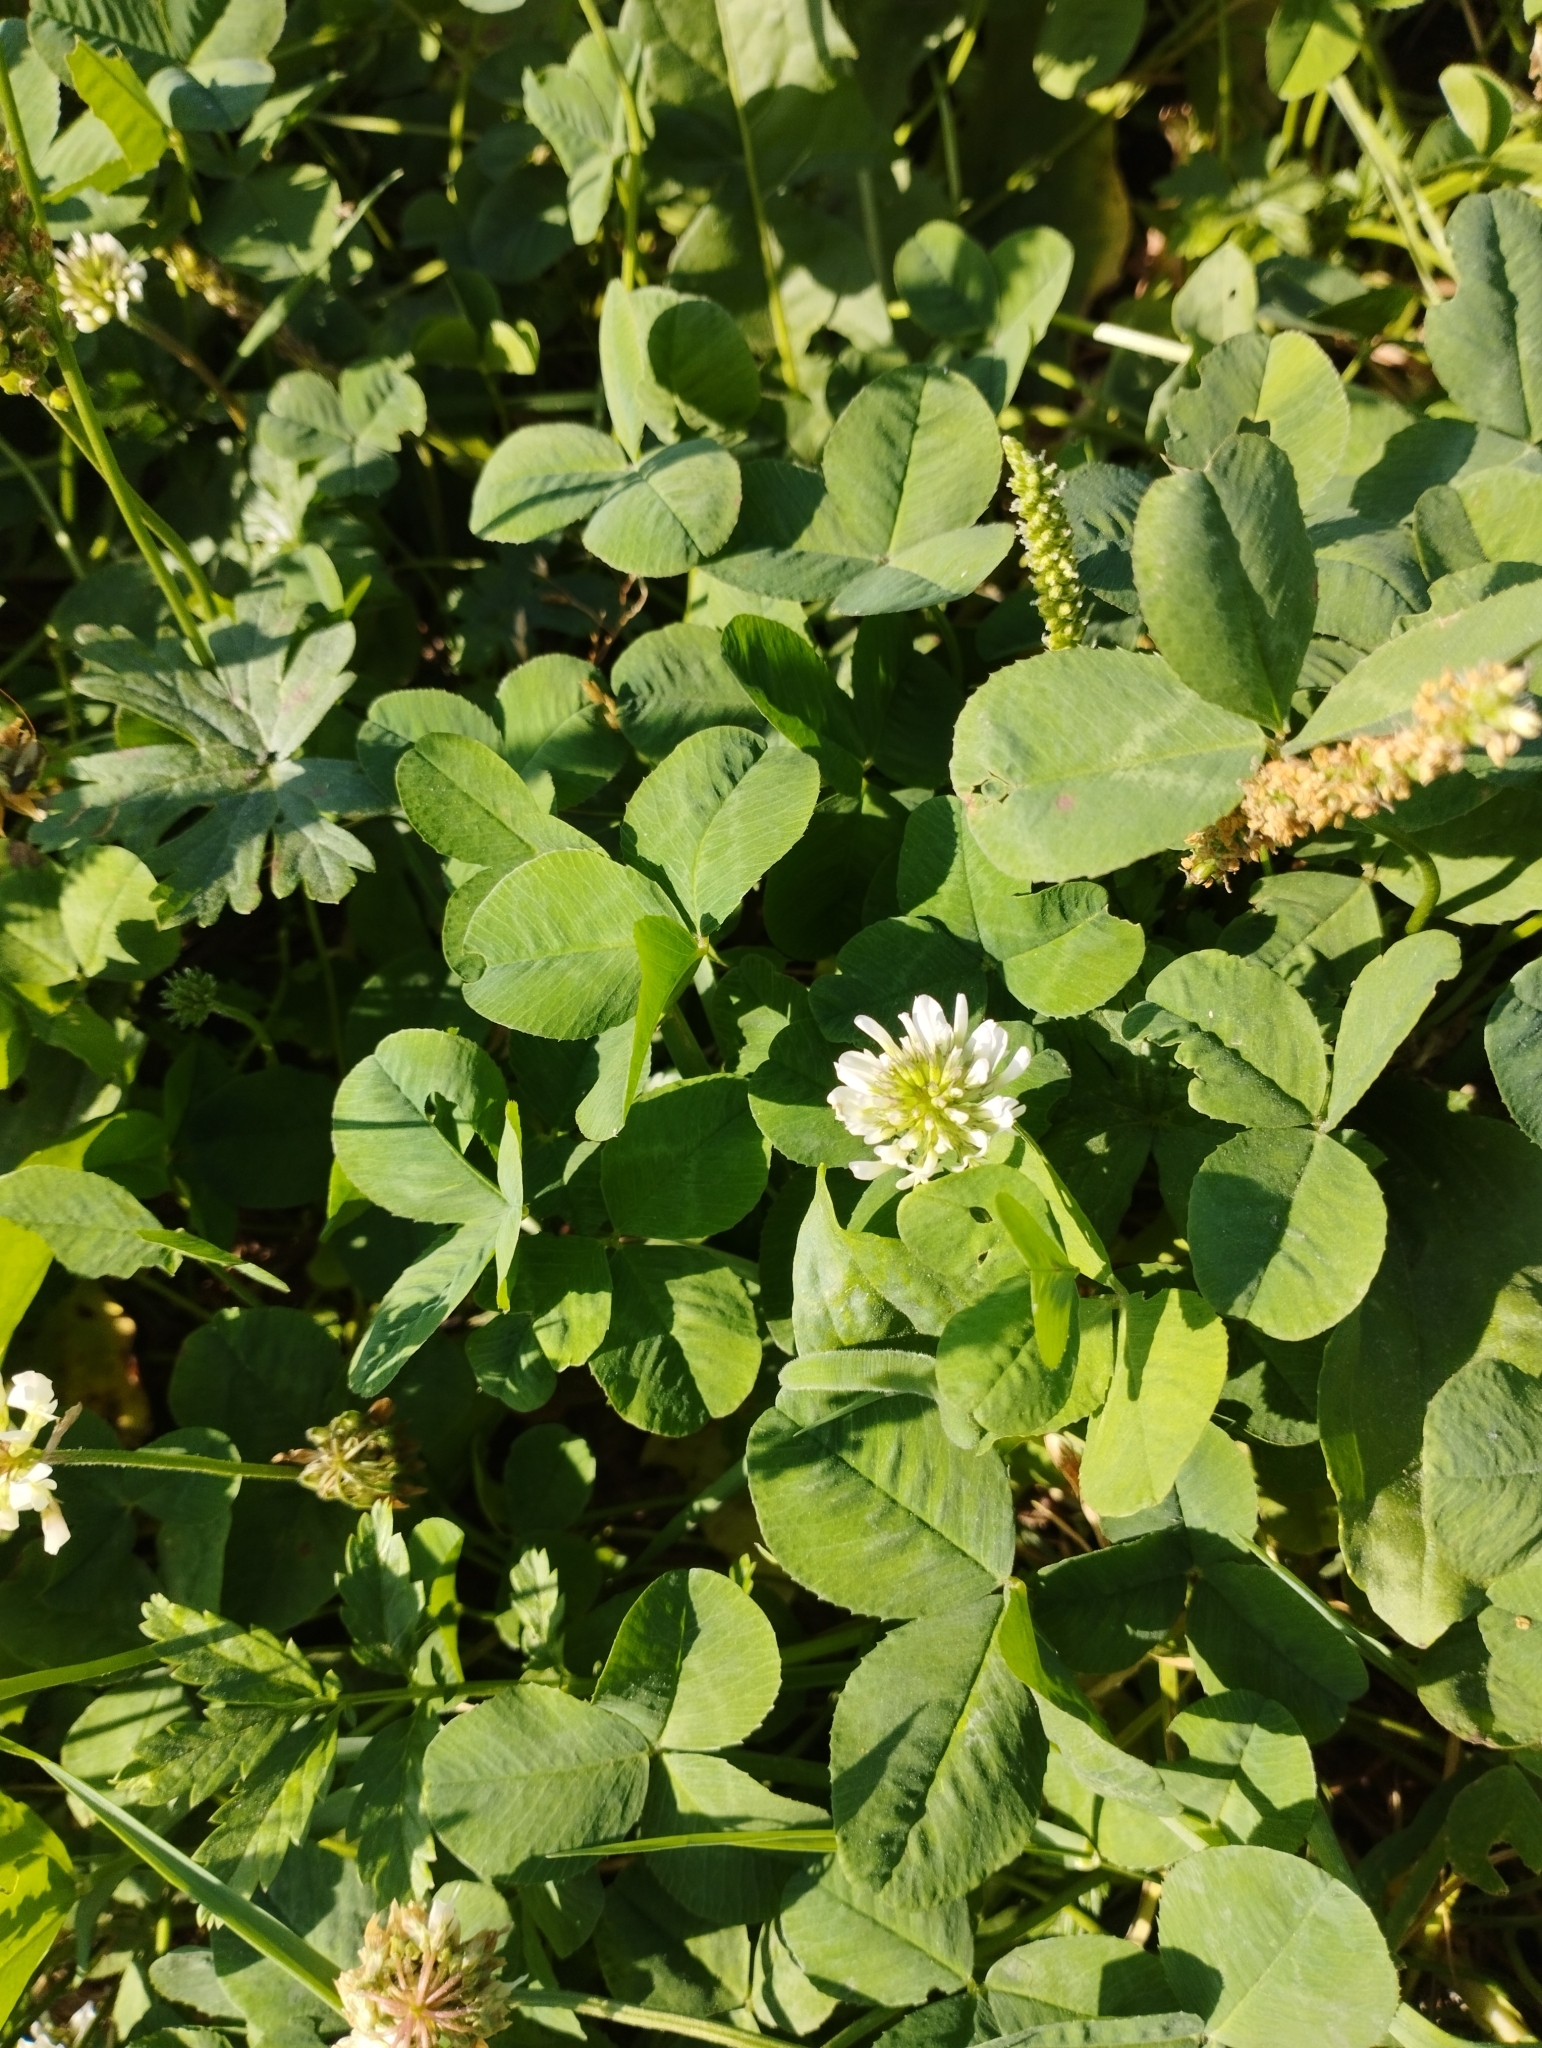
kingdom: Plantae
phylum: Tracheophyta
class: Magnoliopsida
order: Fabales
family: Fabaceae
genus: Trifolium
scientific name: Trifolium repens
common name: White clover
